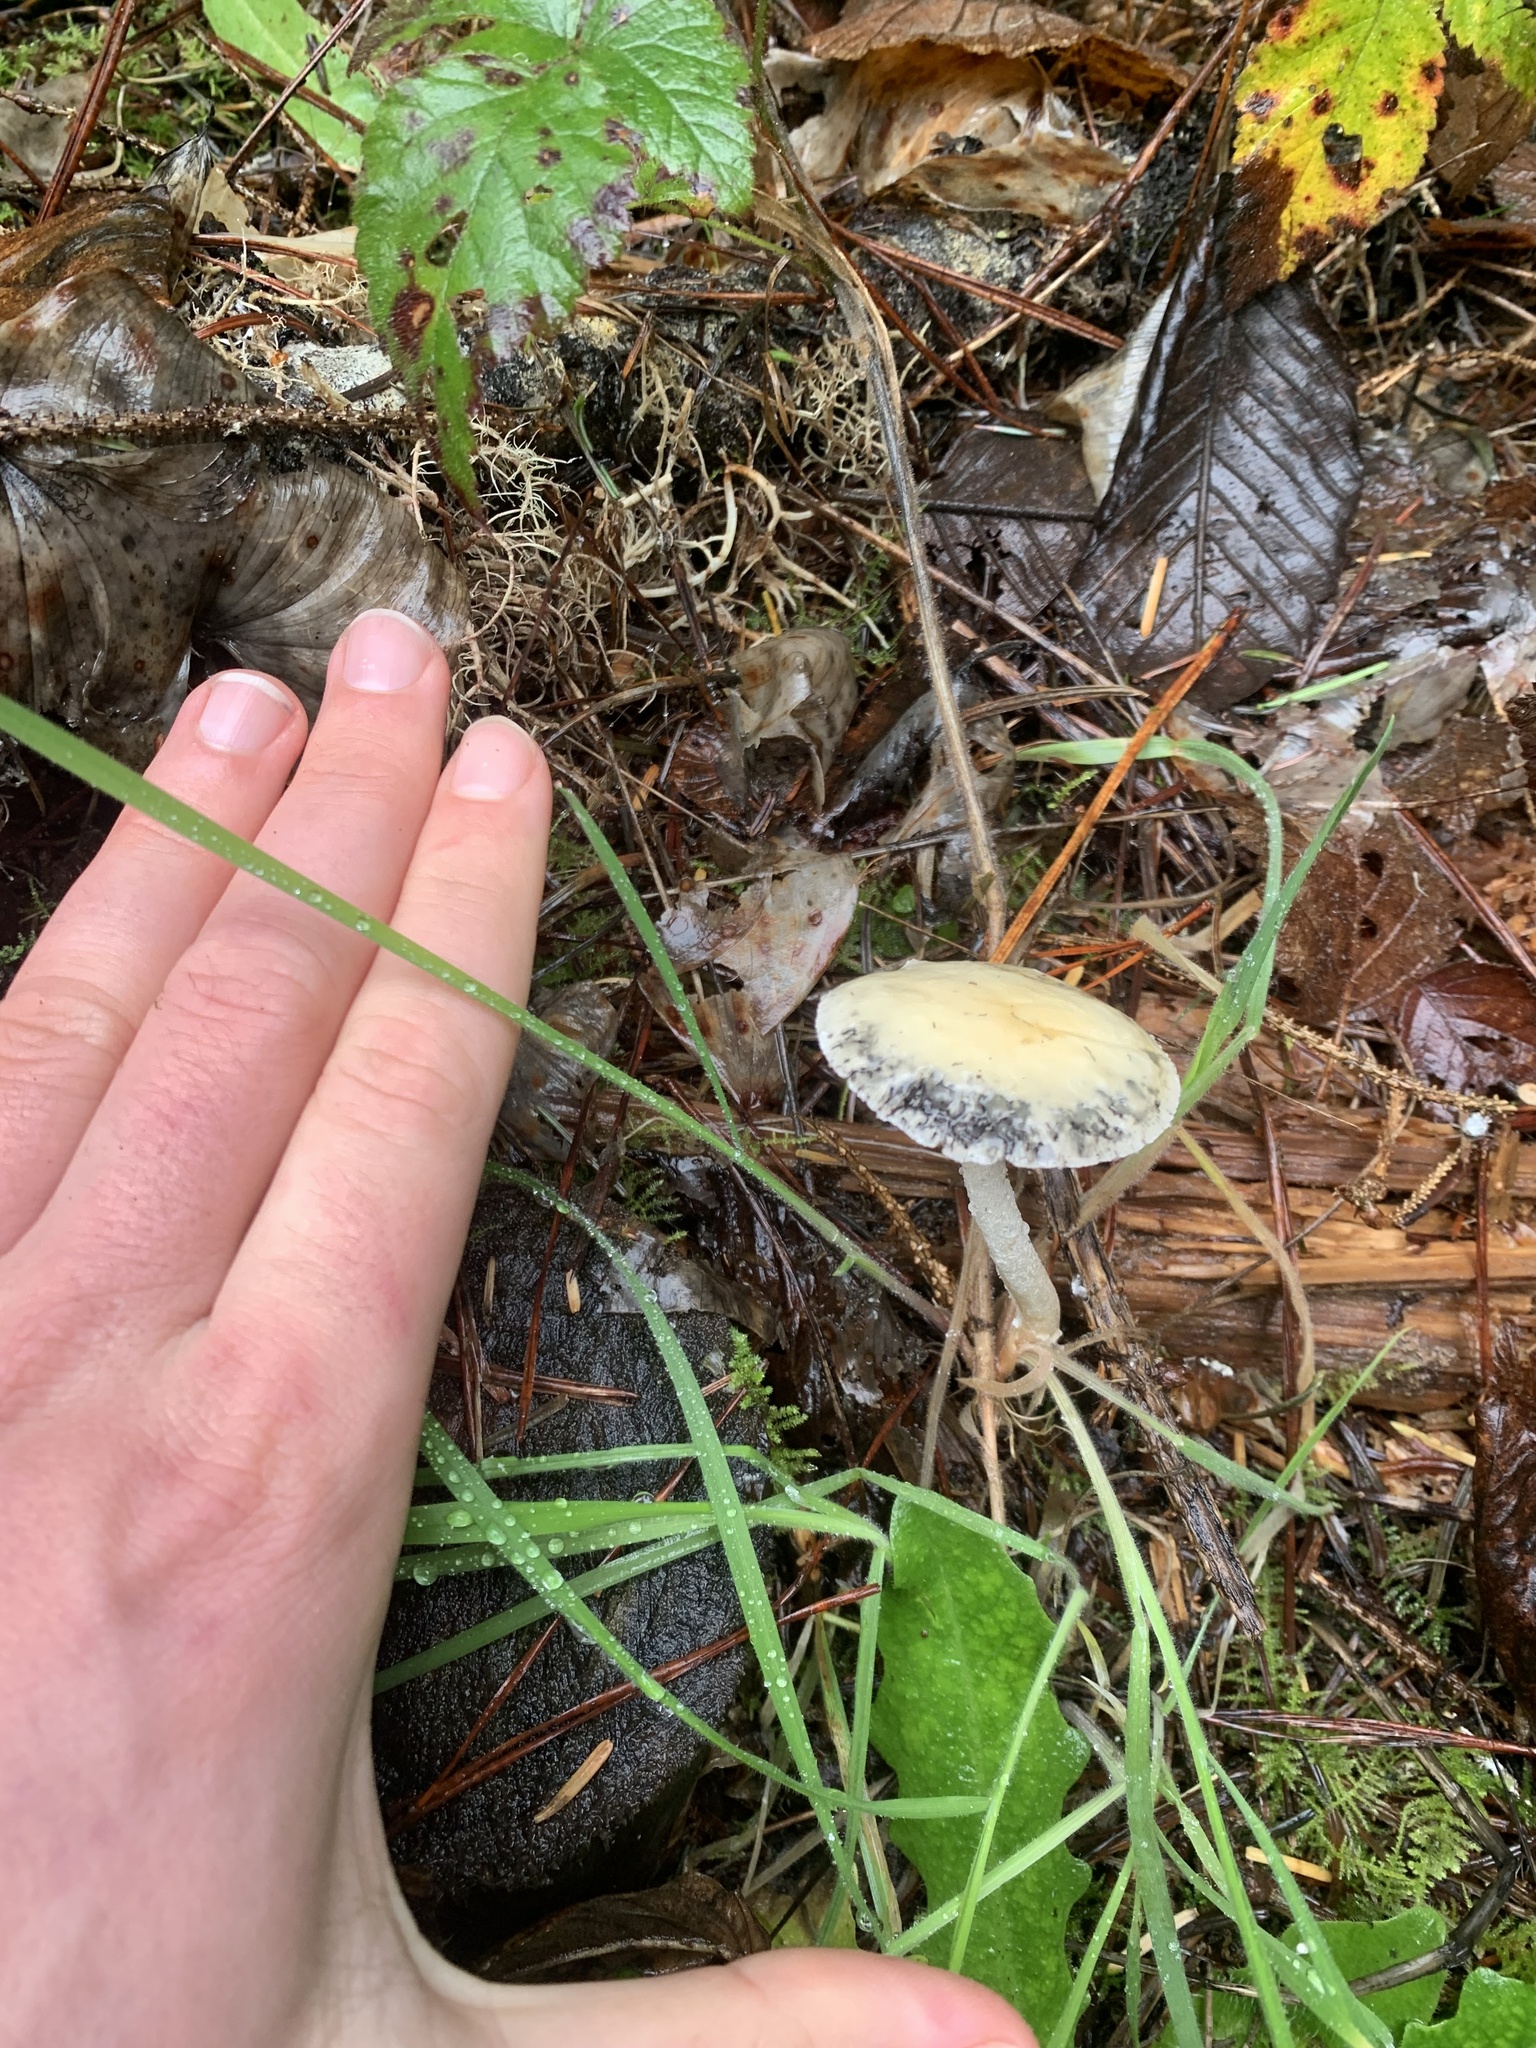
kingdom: Fungi
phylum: Basidiomycota
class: Agaricomycetes
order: Agaricales
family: Strophariaceae
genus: Stropharia
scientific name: Stropharia ambigua
